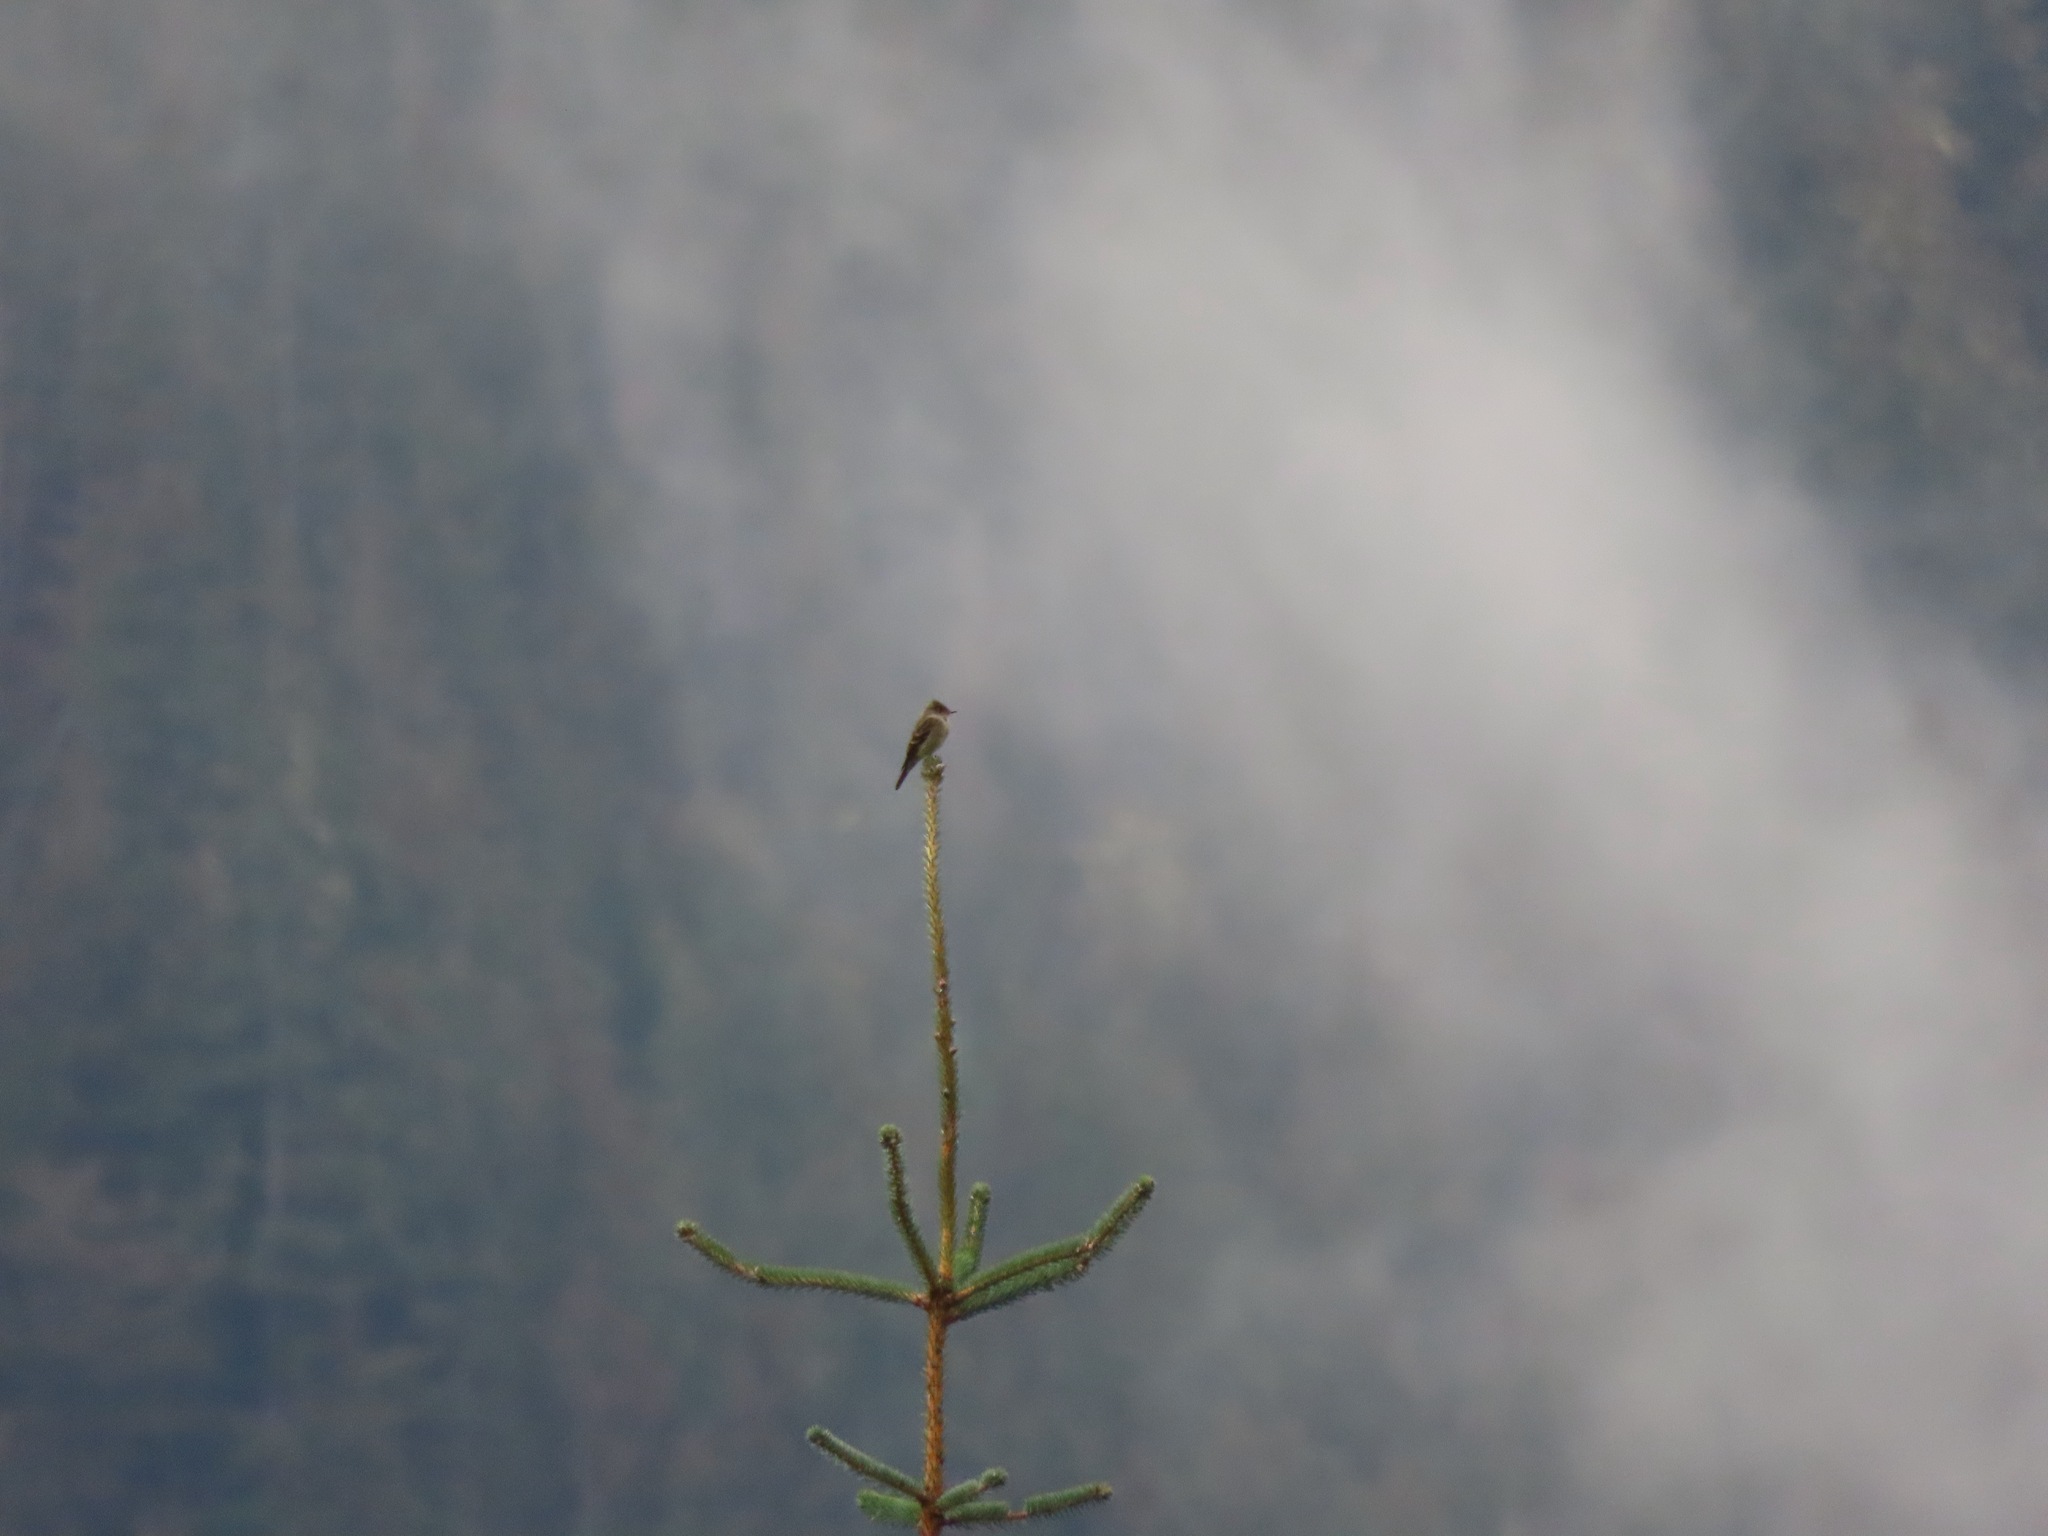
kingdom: Animalia
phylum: Chordata
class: Aves
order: Passeriformes
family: Tyrannidae
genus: Contopus
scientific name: Contopus sordidulus
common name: Western wood-pewee
